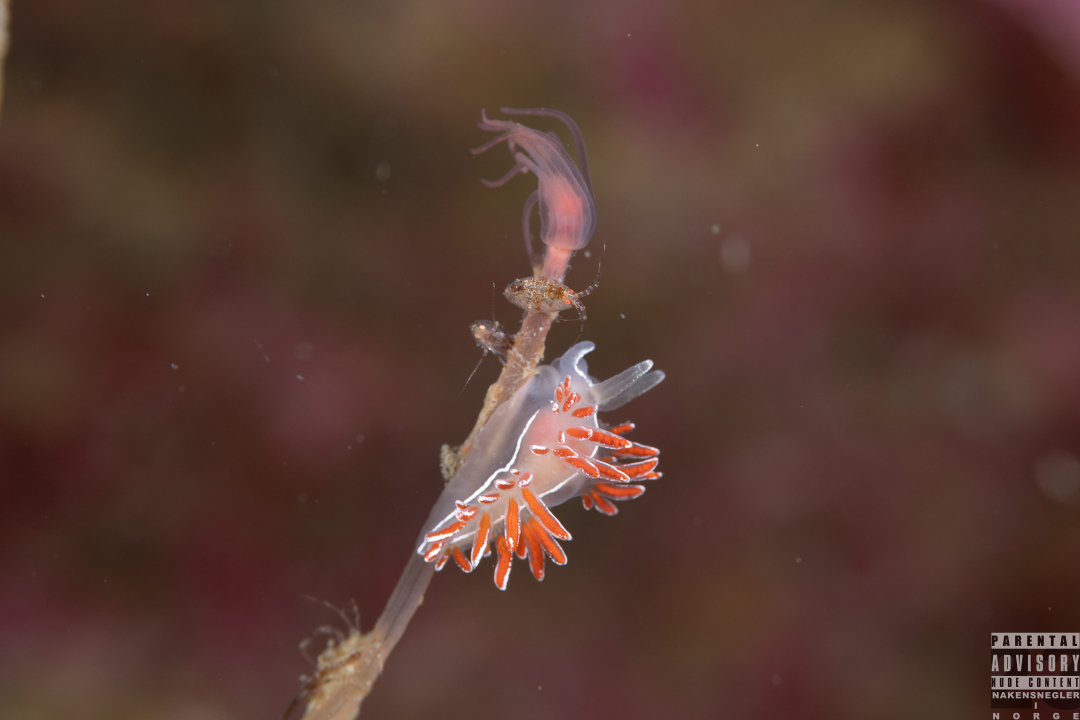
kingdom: Animalia
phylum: Mollusca
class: Gastropoda
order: Nudibranchia
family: Coryphellidae
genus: Coryphella
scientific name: Coryphella lineata
